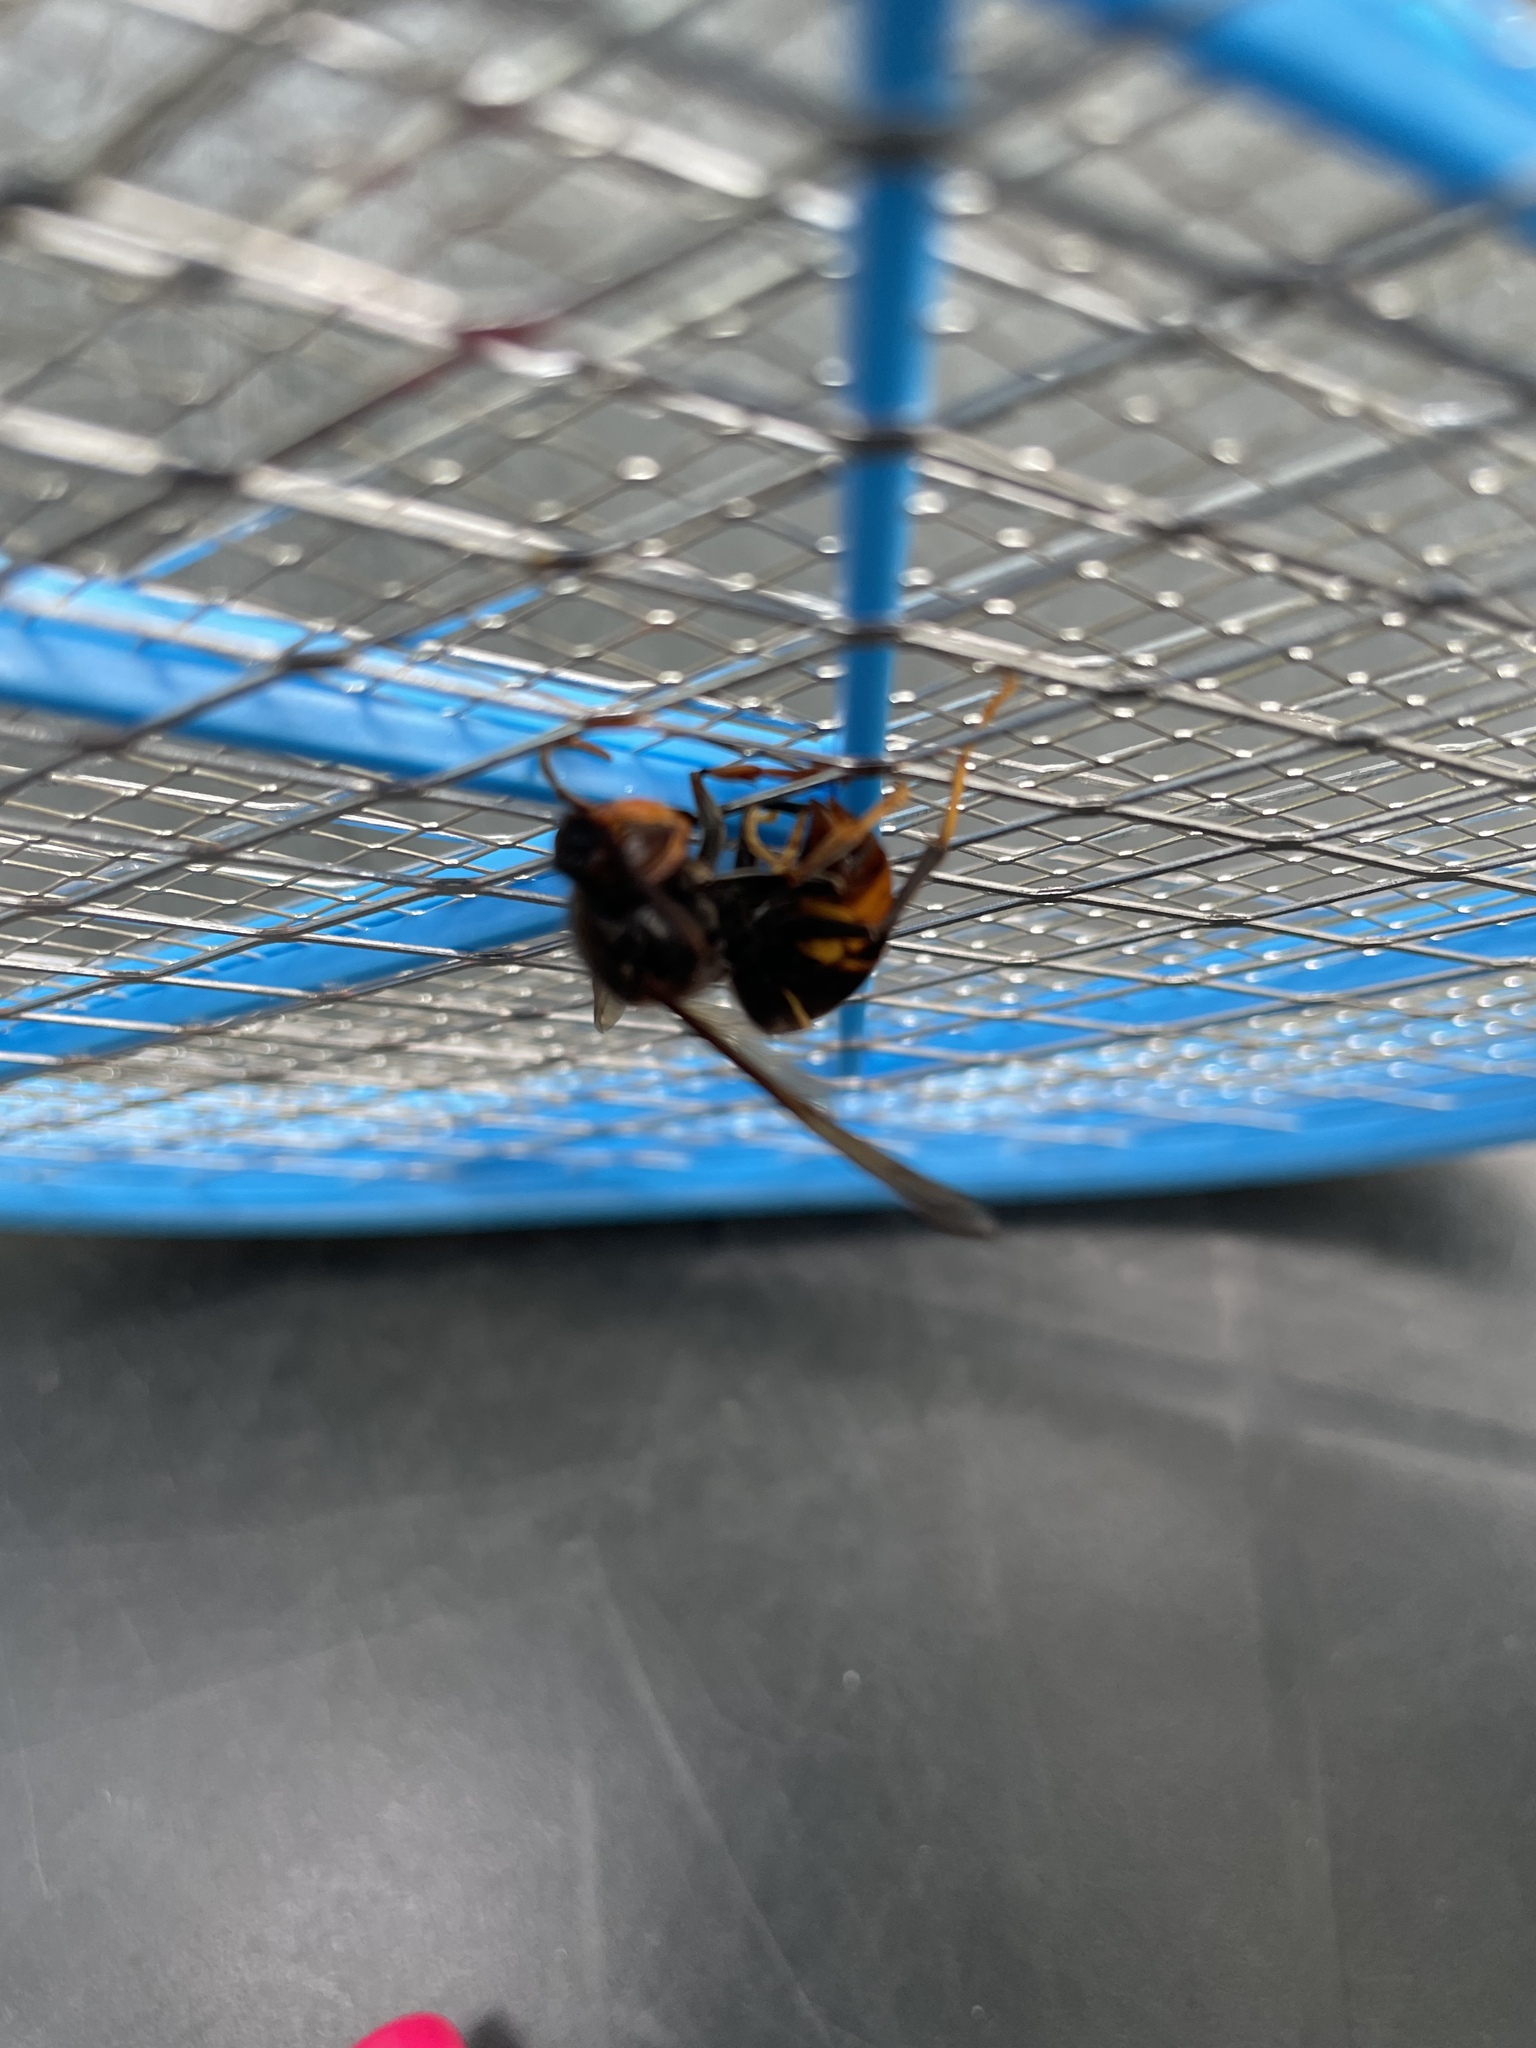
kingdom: Animalia
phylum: Arthropoda
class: Insecta
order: Hymenoptera
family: Vespidae
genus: Vespa
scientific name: Vespa velutina
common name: Asian hornet
